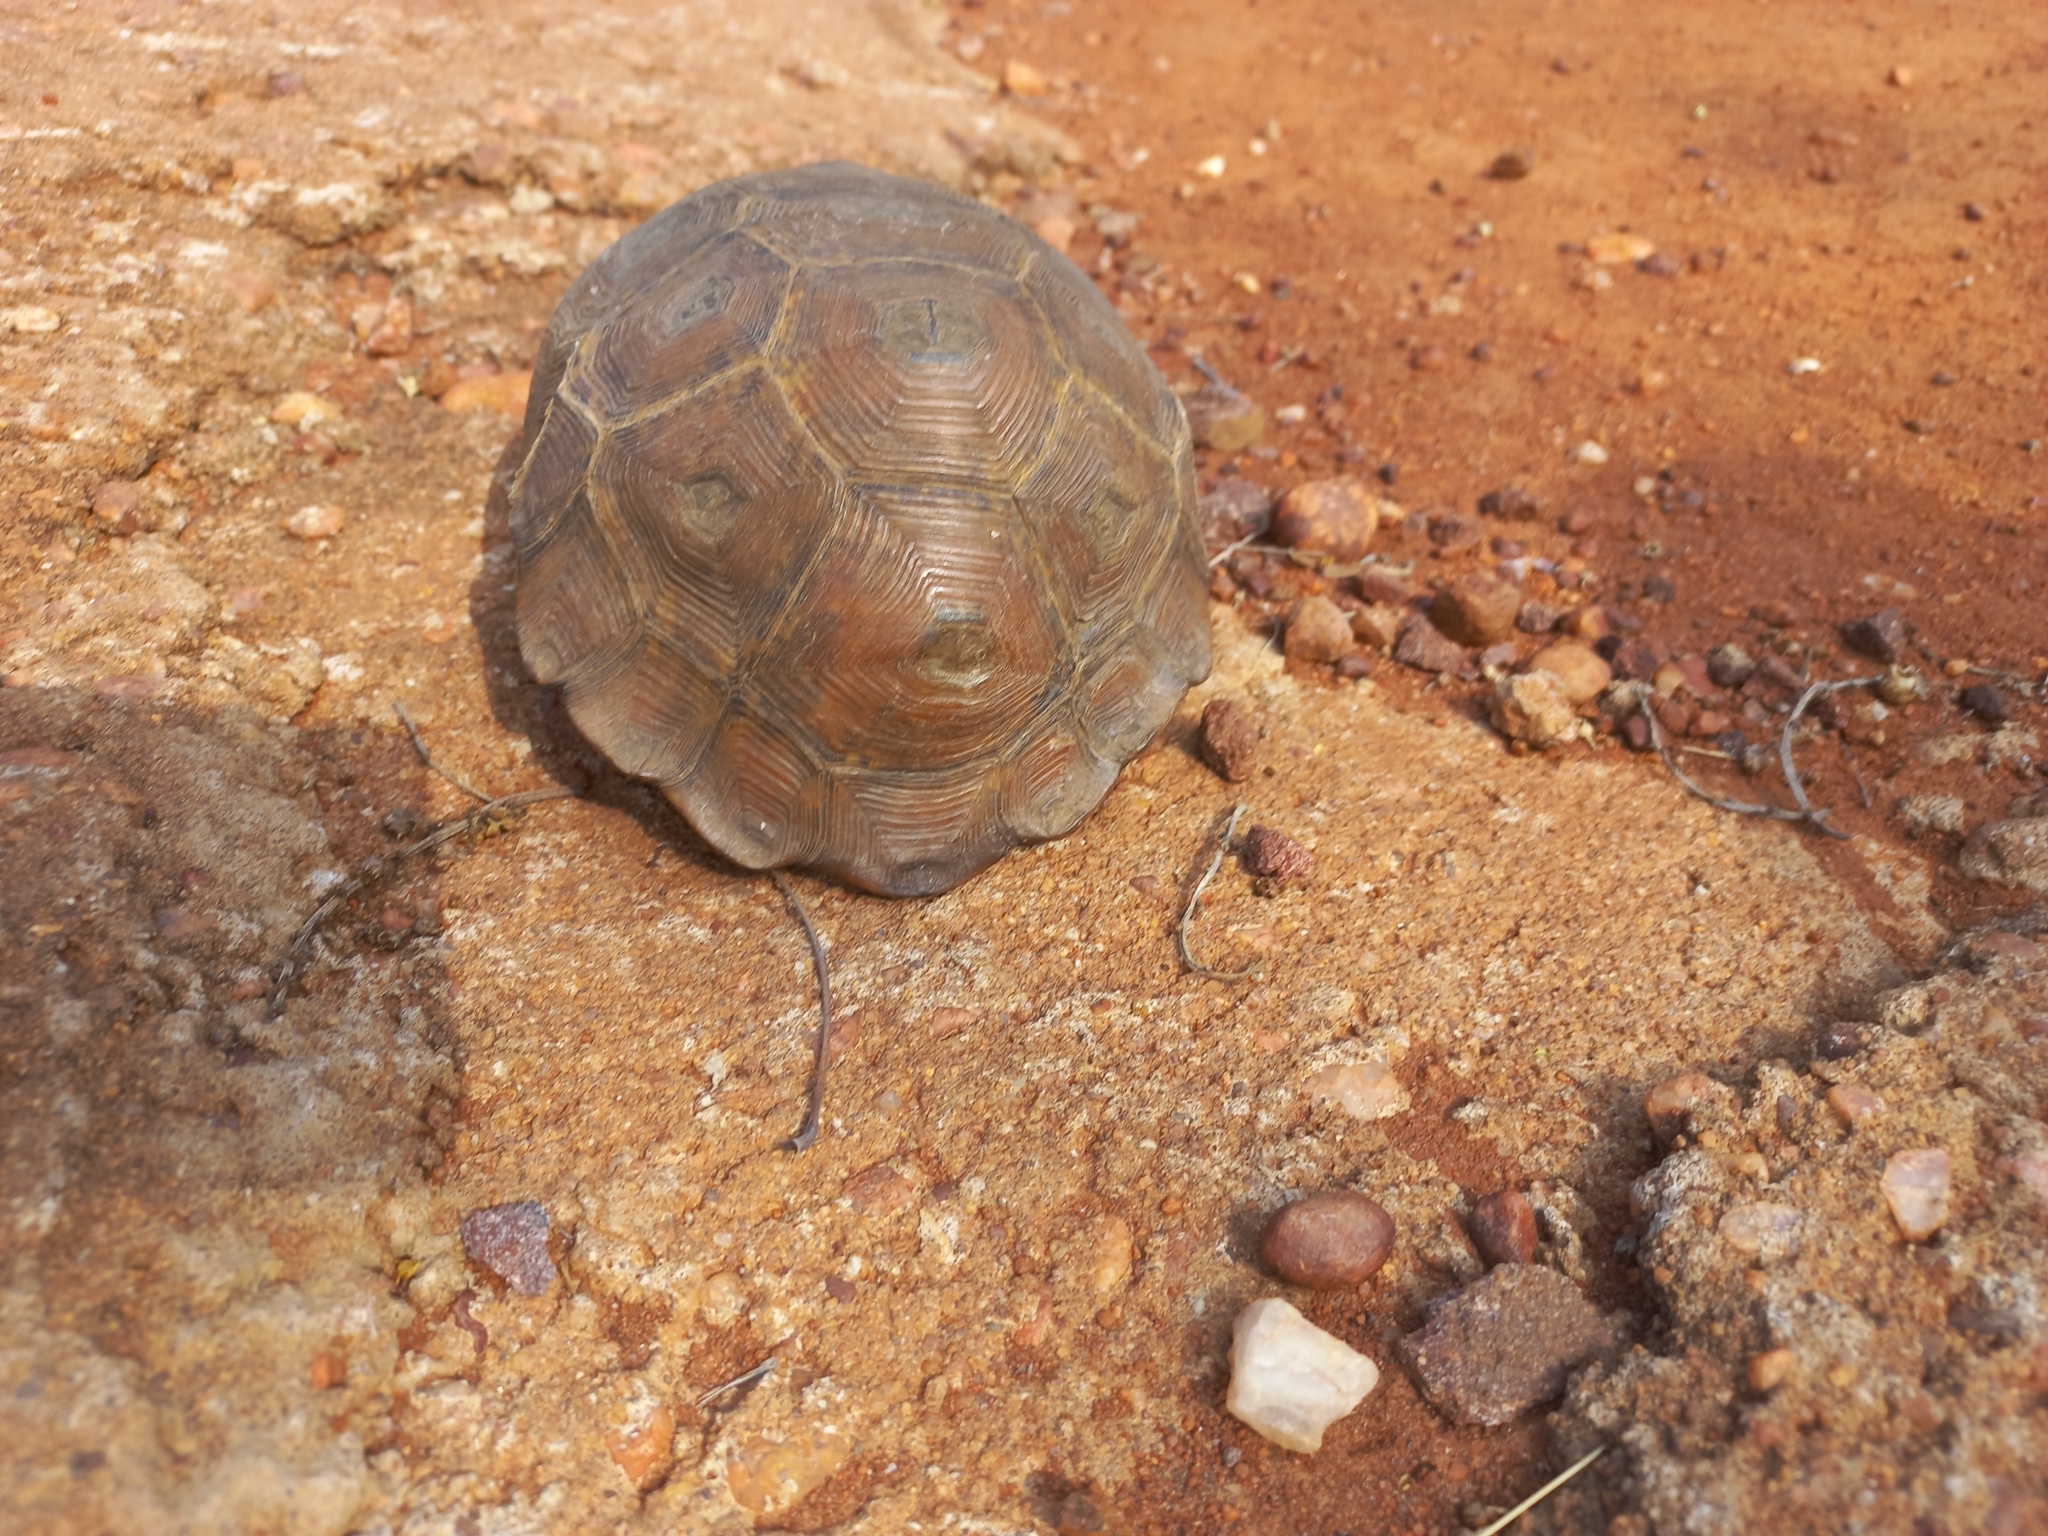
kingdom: Animalia
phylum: Chordata
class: Testudines
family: Testudinidae
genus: Kinixys
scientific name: Kinixys lobatsiana
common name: Lobatse hinge-back tortoise
